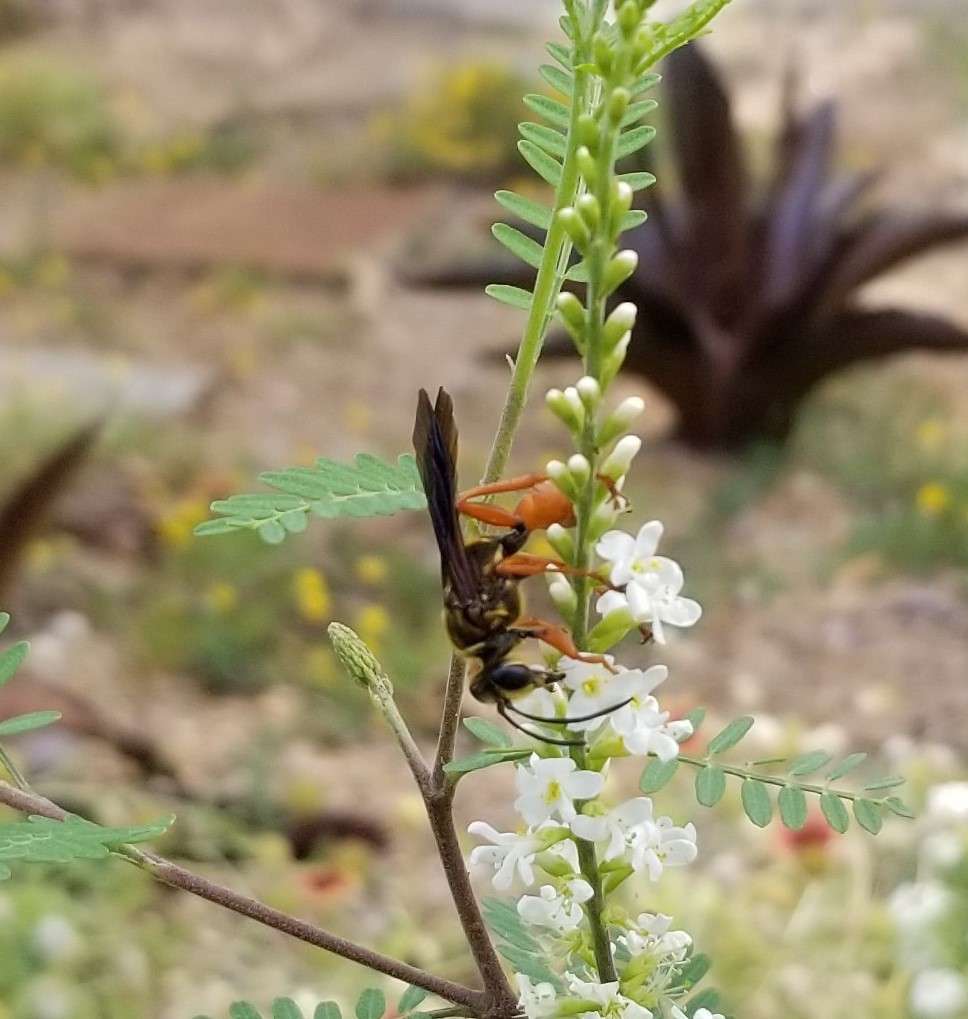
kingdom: Animalia
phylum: Arthropoda
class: Insecta
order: Hymenoptera
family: Sphecidae
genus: Sphex
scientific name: Sphex ichneumoneus
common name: Great golden digger wasp
